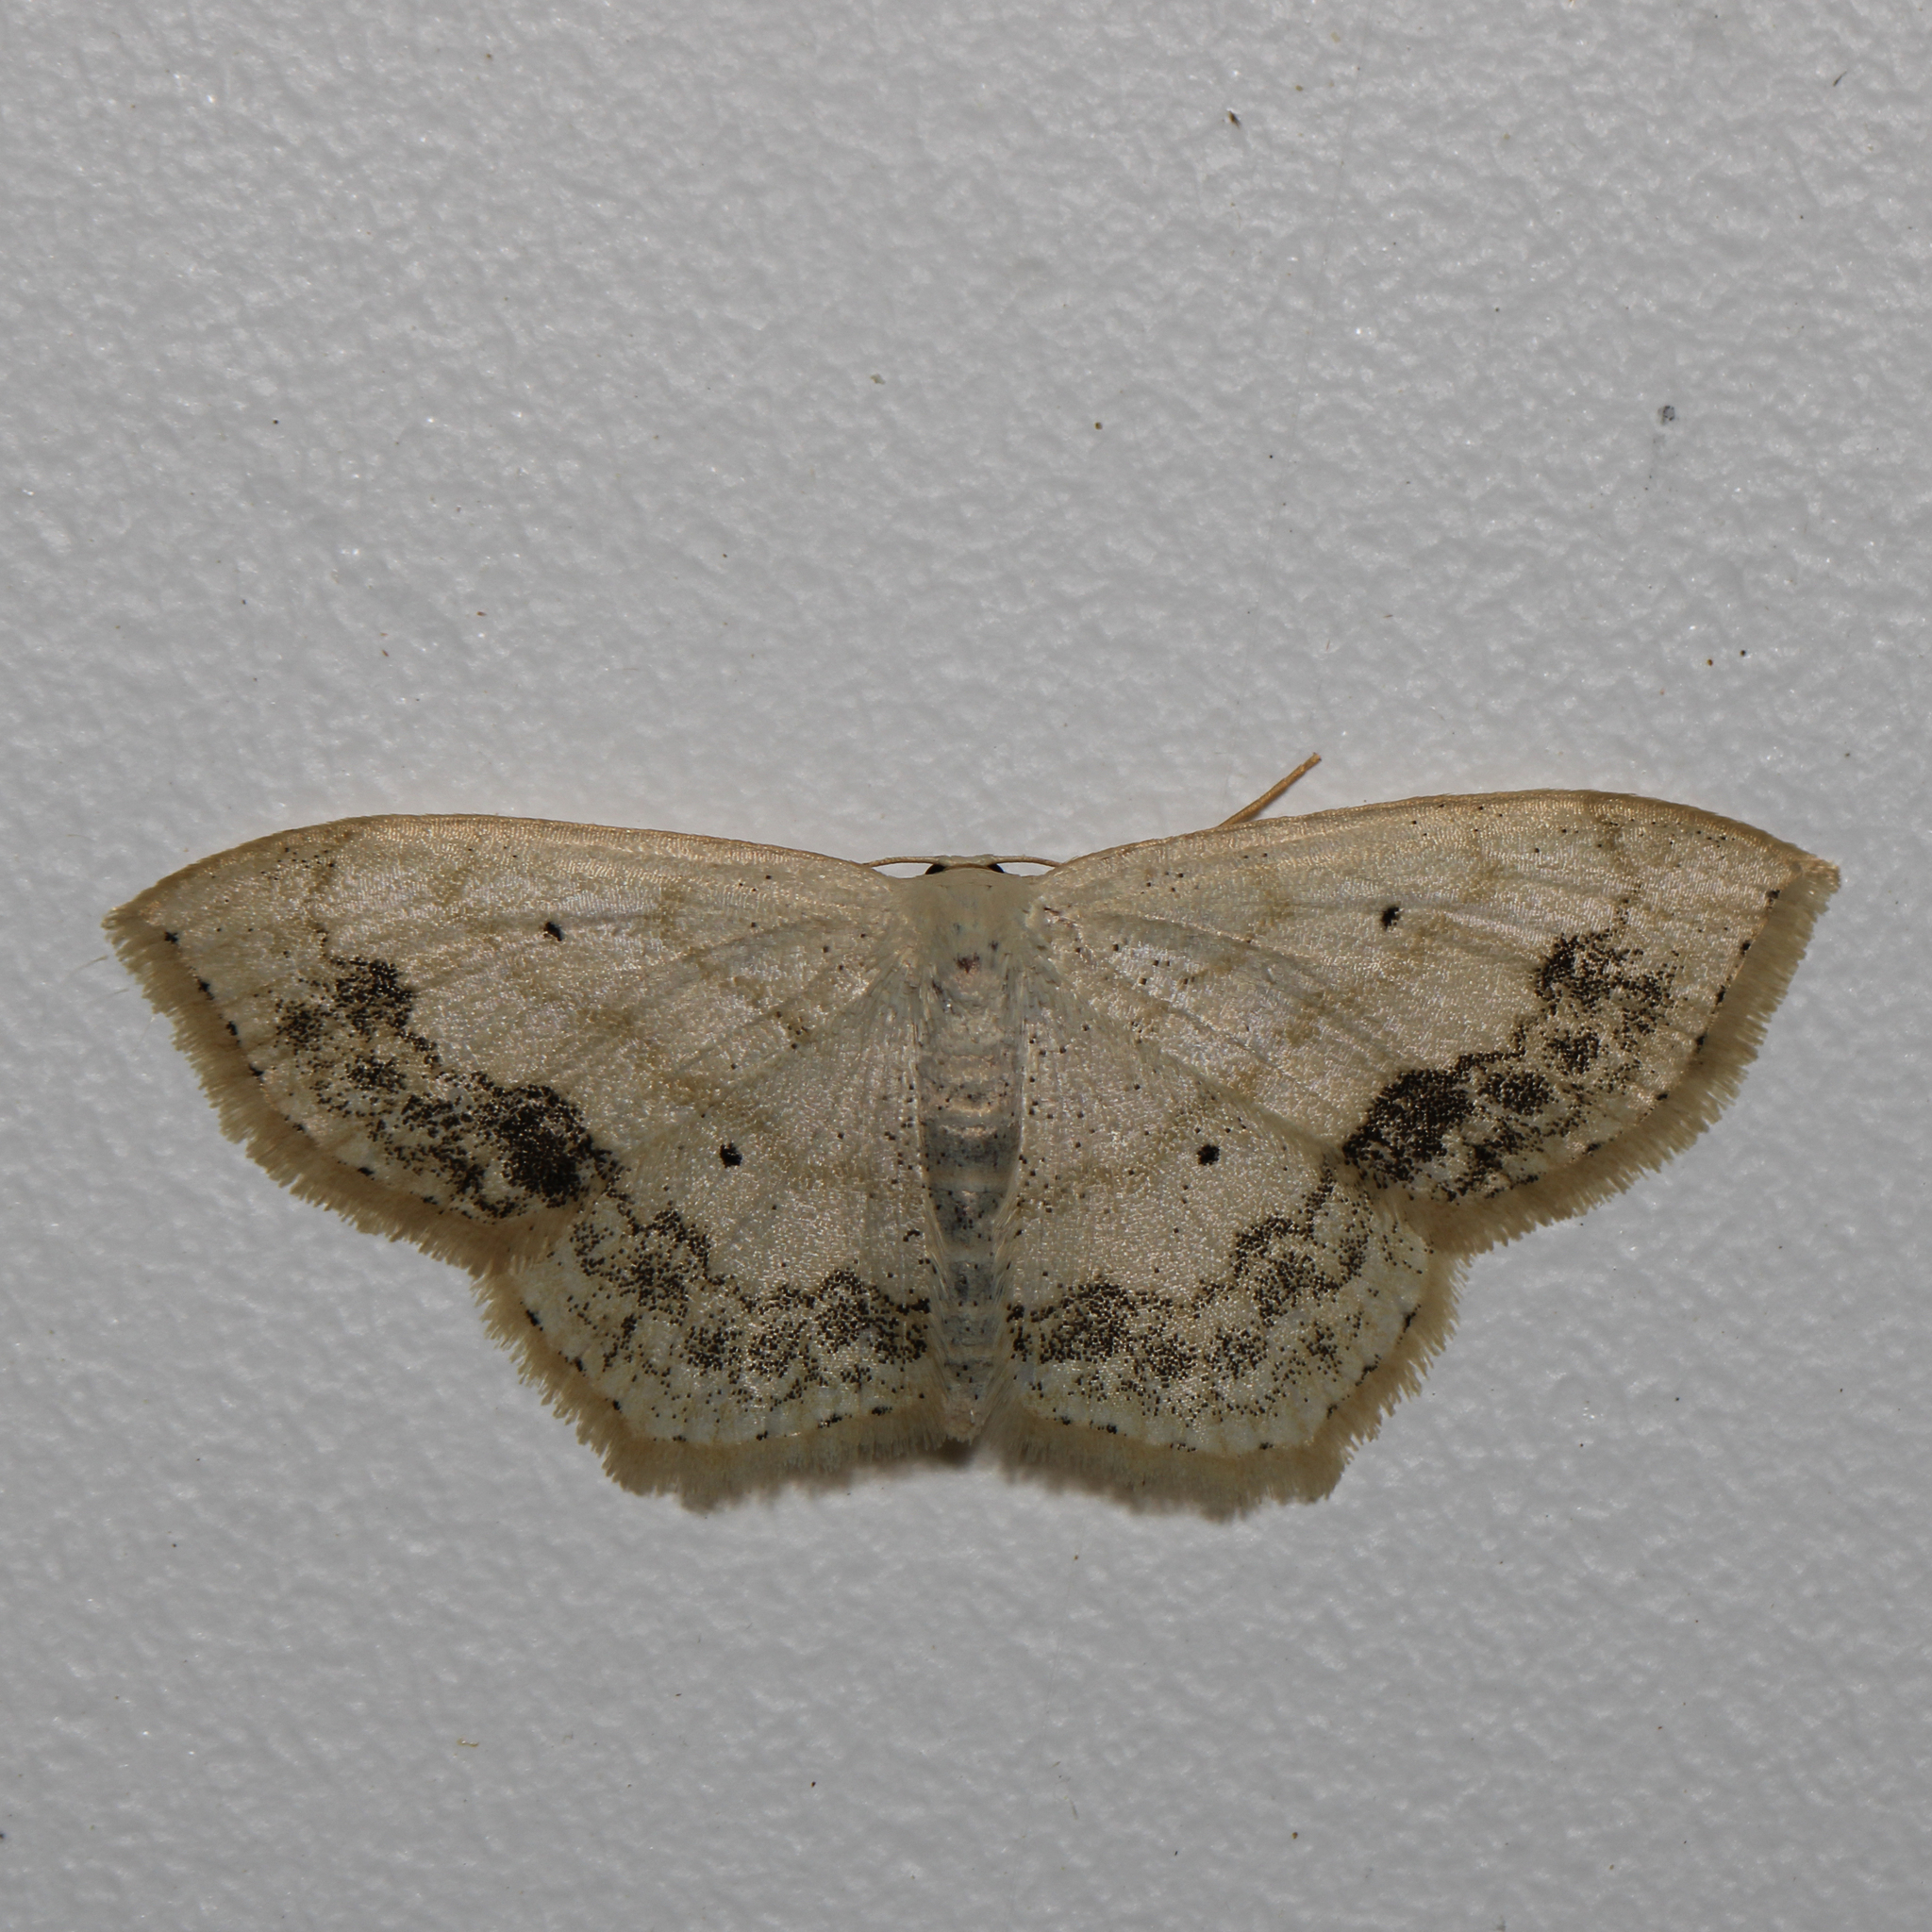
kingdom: Animalia
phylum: Arthropoda
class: Insecta
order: Lepidoptera
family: Geometridae
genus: Scopula
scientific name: Scopula limboundata
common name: Large lace border
